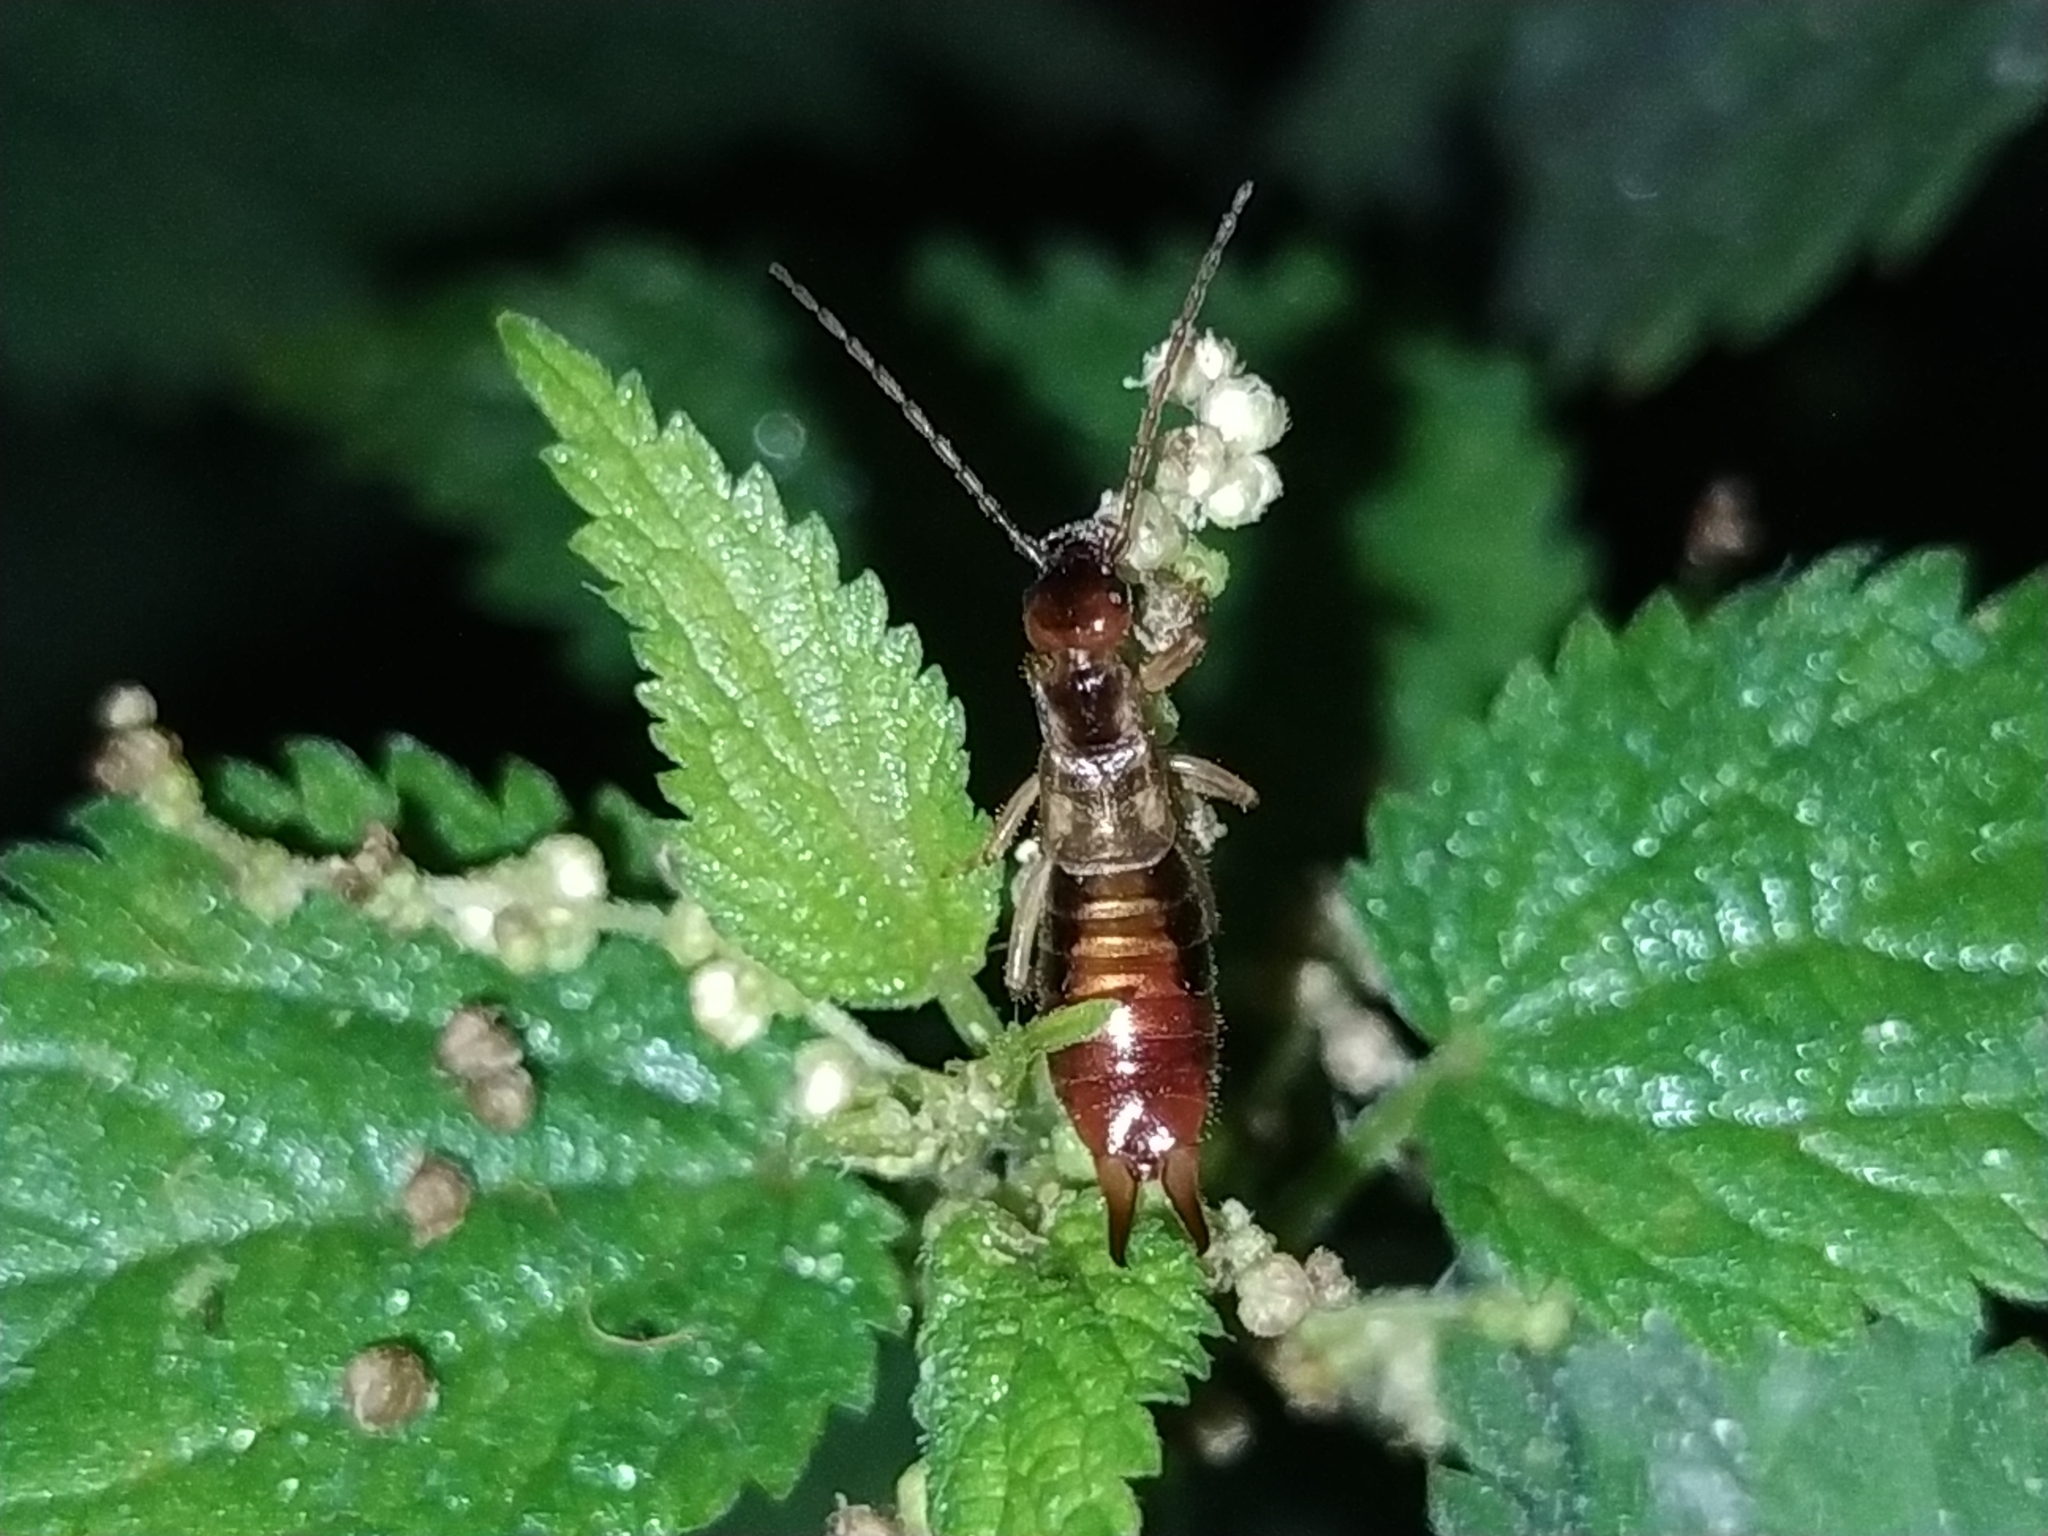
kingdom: Animalia
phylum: Arthropoda
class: Insecta
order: Dermaptera
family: Forficulidae
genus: Apterygida
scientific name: Apterygida albipennis
